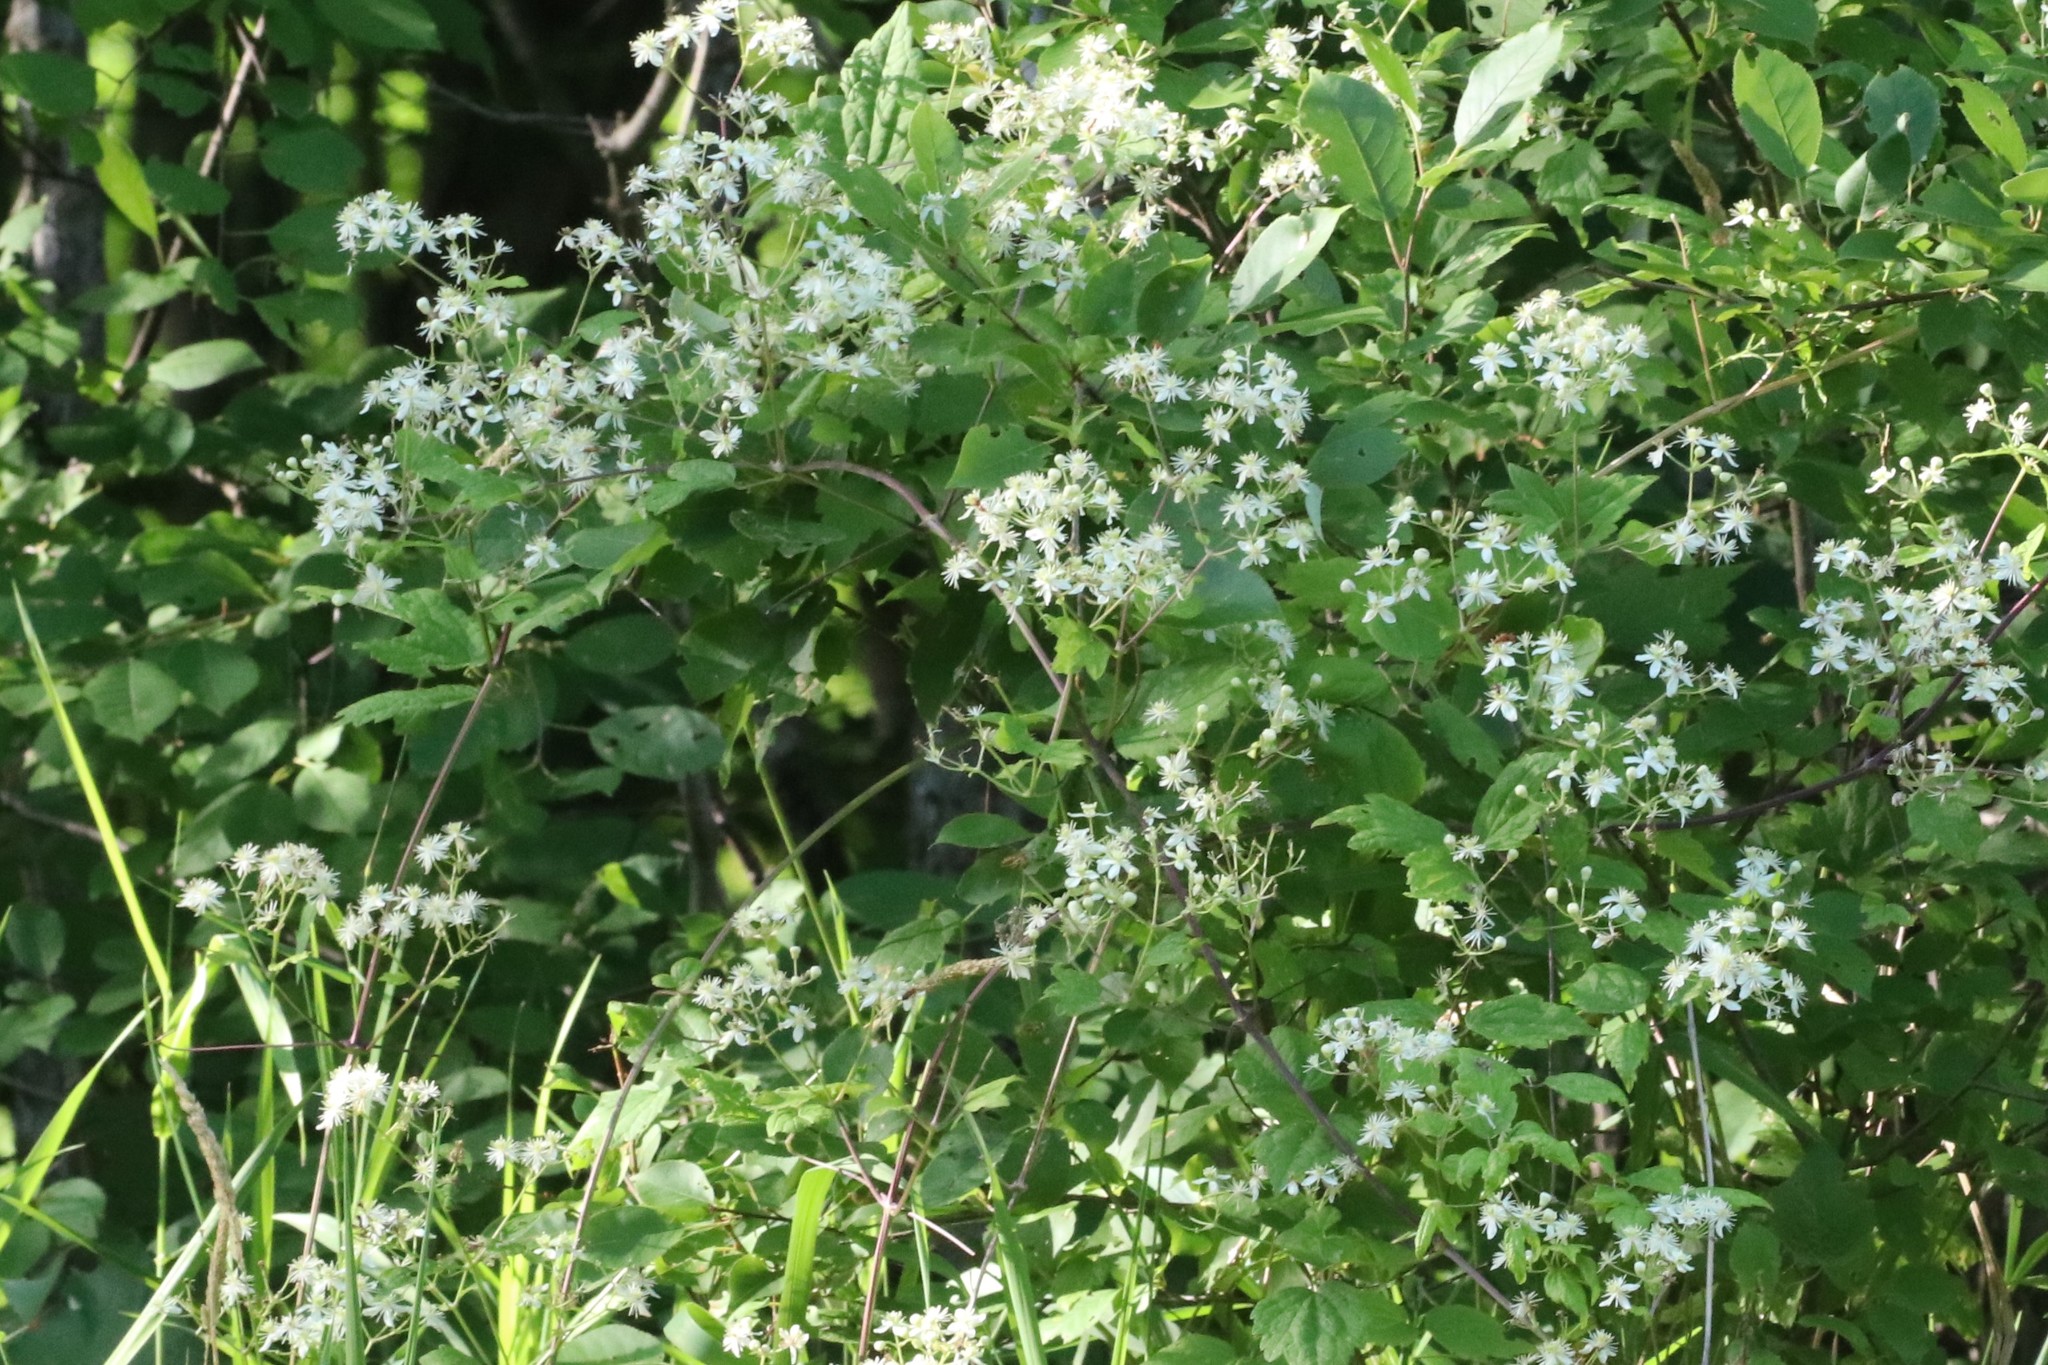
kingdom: Plantae
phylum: Tracheophyta
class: Magnoliopsida
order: Ranunculales
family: Ranunculaceae
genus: Clematis
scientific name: Clematis virginiana
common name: Virgin's-bower
